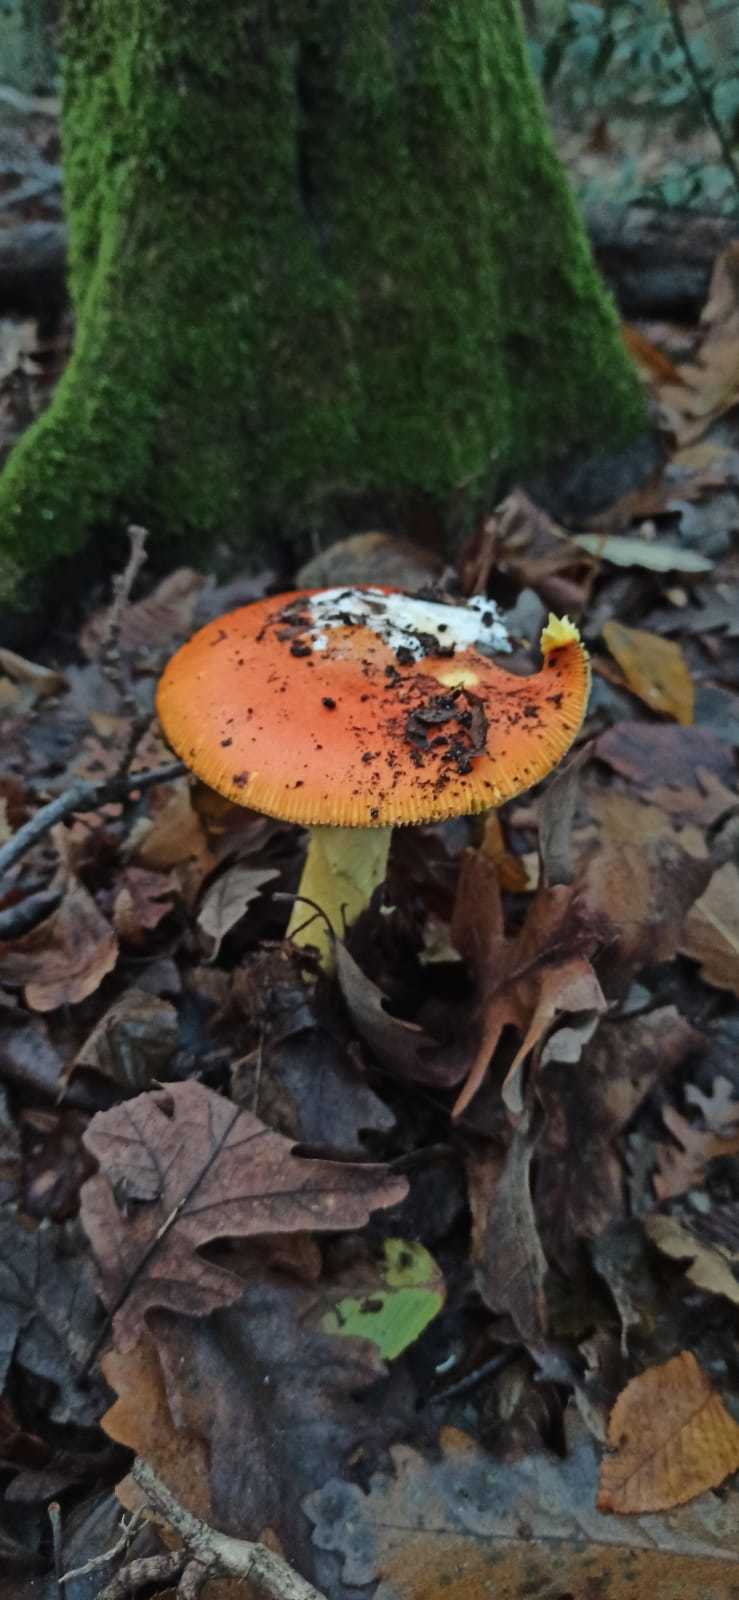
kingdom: Fungi
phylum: Basidiomycota
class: Agaricomycetes
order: Agaricales
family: Amanitaceae
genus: Amanita
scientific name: Amanita caesarea
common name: Caesar's amanita
